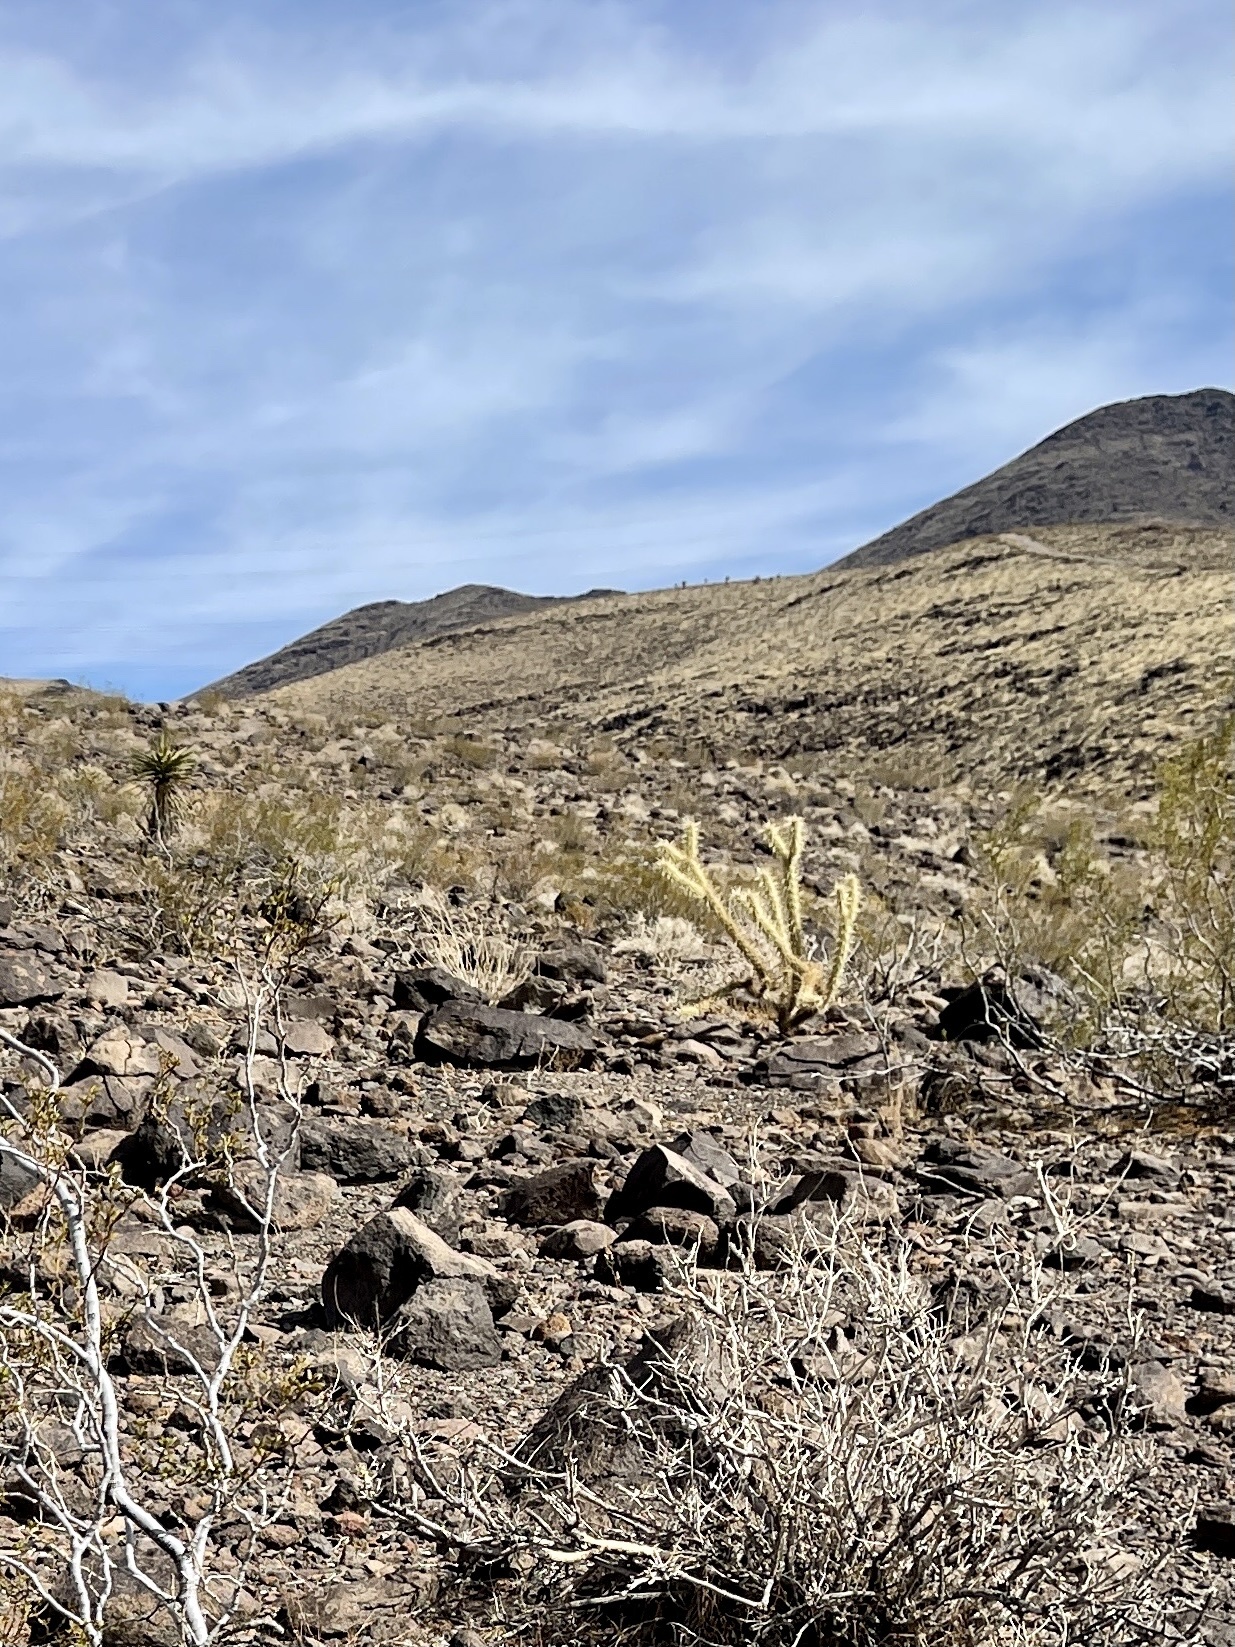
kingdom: Plantae
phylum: Tracheophyta
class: Magnoliopsida
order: Caryophyllales
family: Cactaceae
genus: Cylindropuntia
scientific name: Cylindropuntia acanthocarpa
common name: Buckhorn cholla
